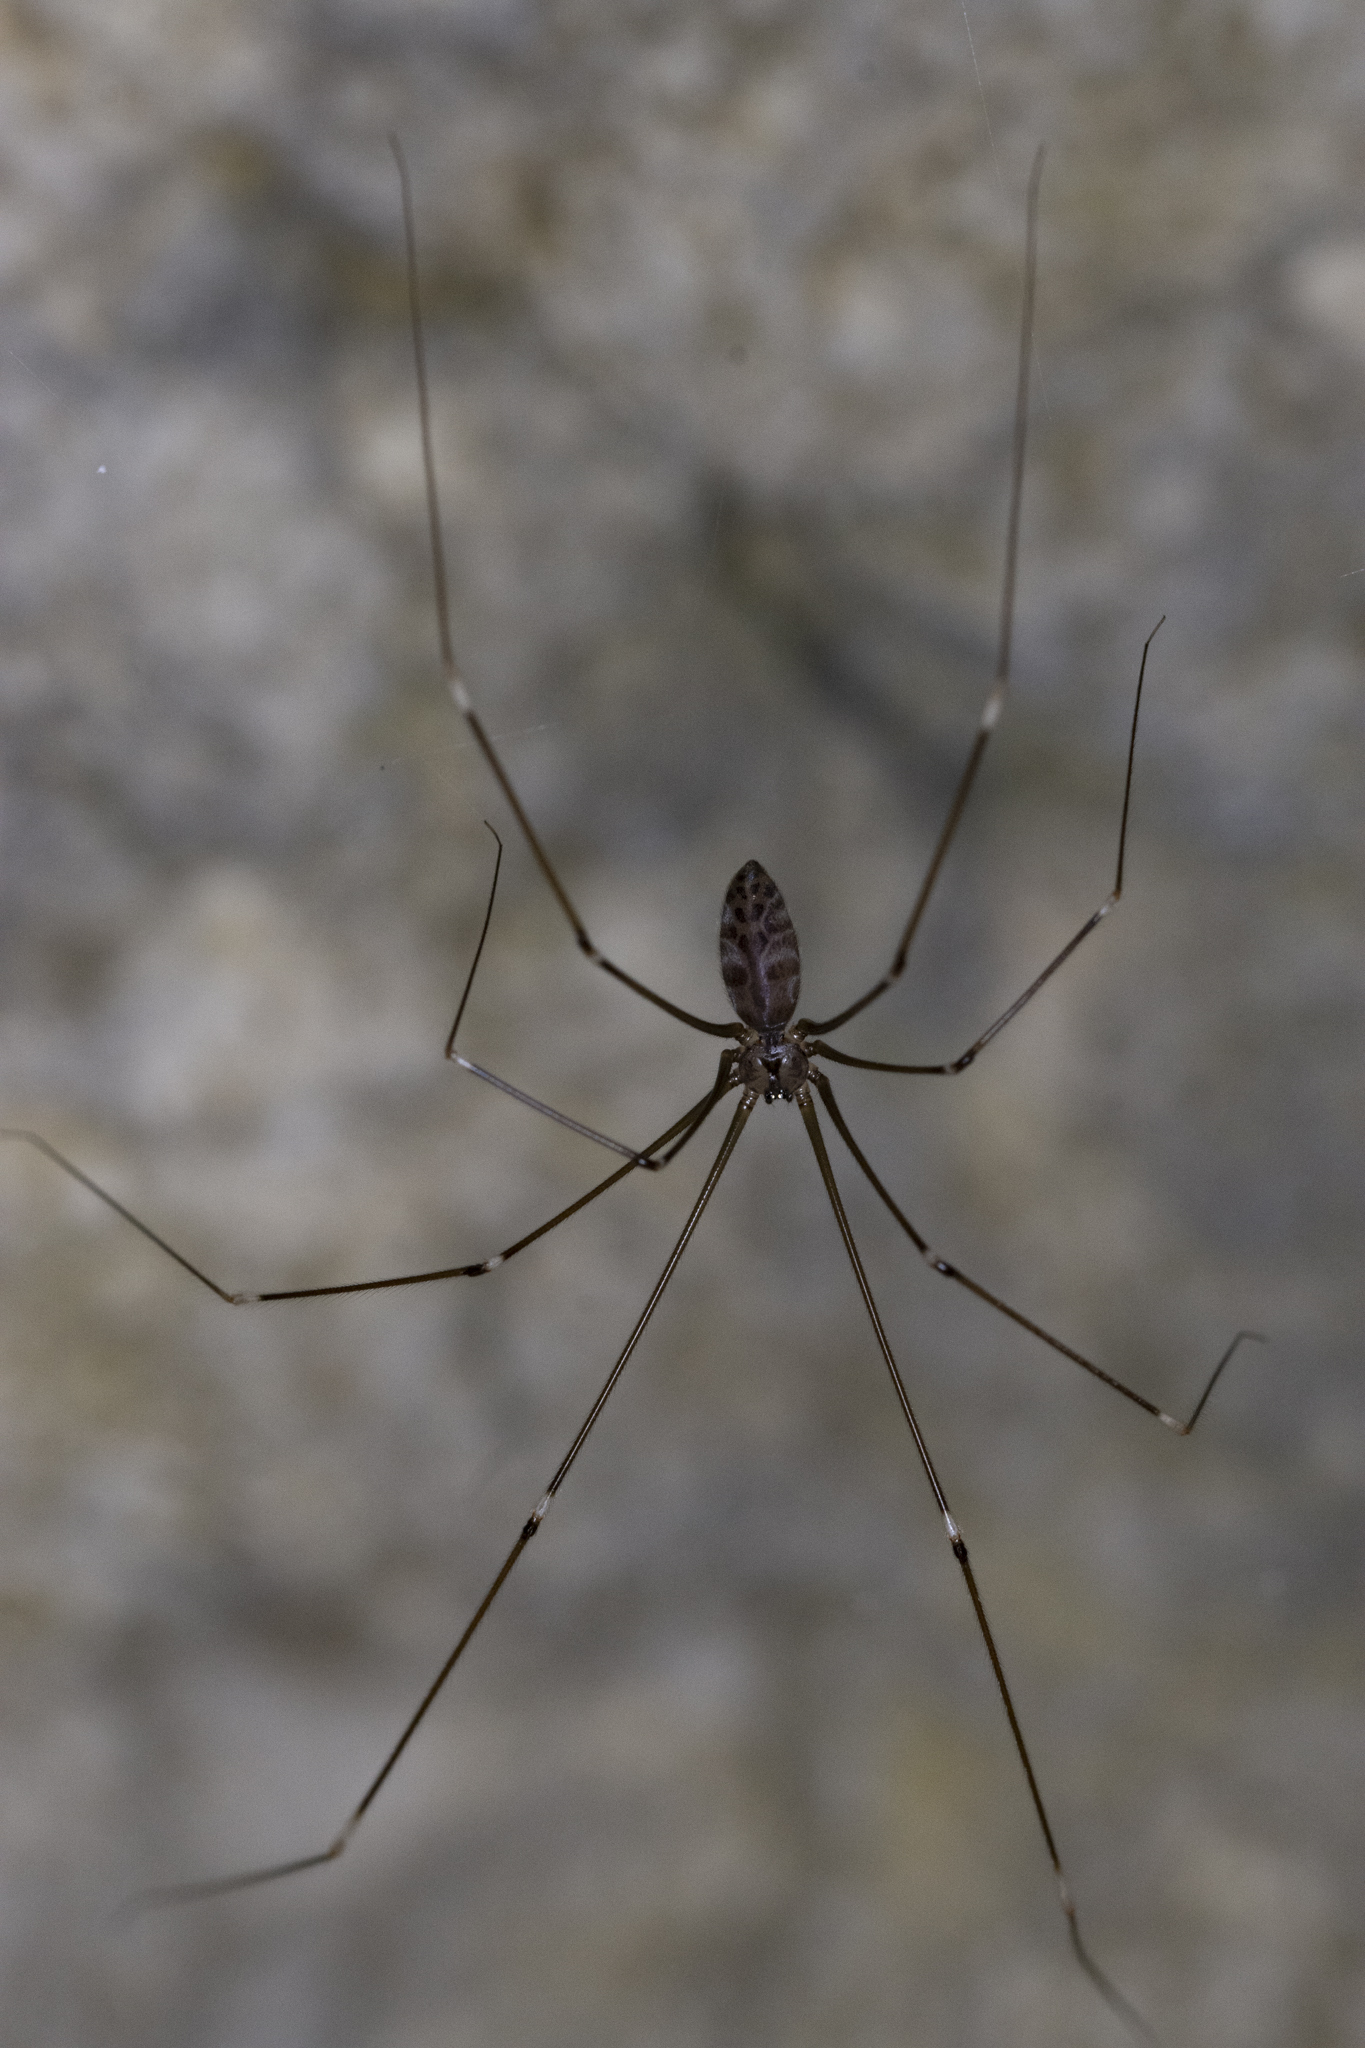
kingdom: Animalia
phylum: Arthropoda
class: Arachnida
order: Araneae
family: Pholcidae
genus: Smeringopus
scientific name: Smeringopus pallidus
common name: Cellar spider
